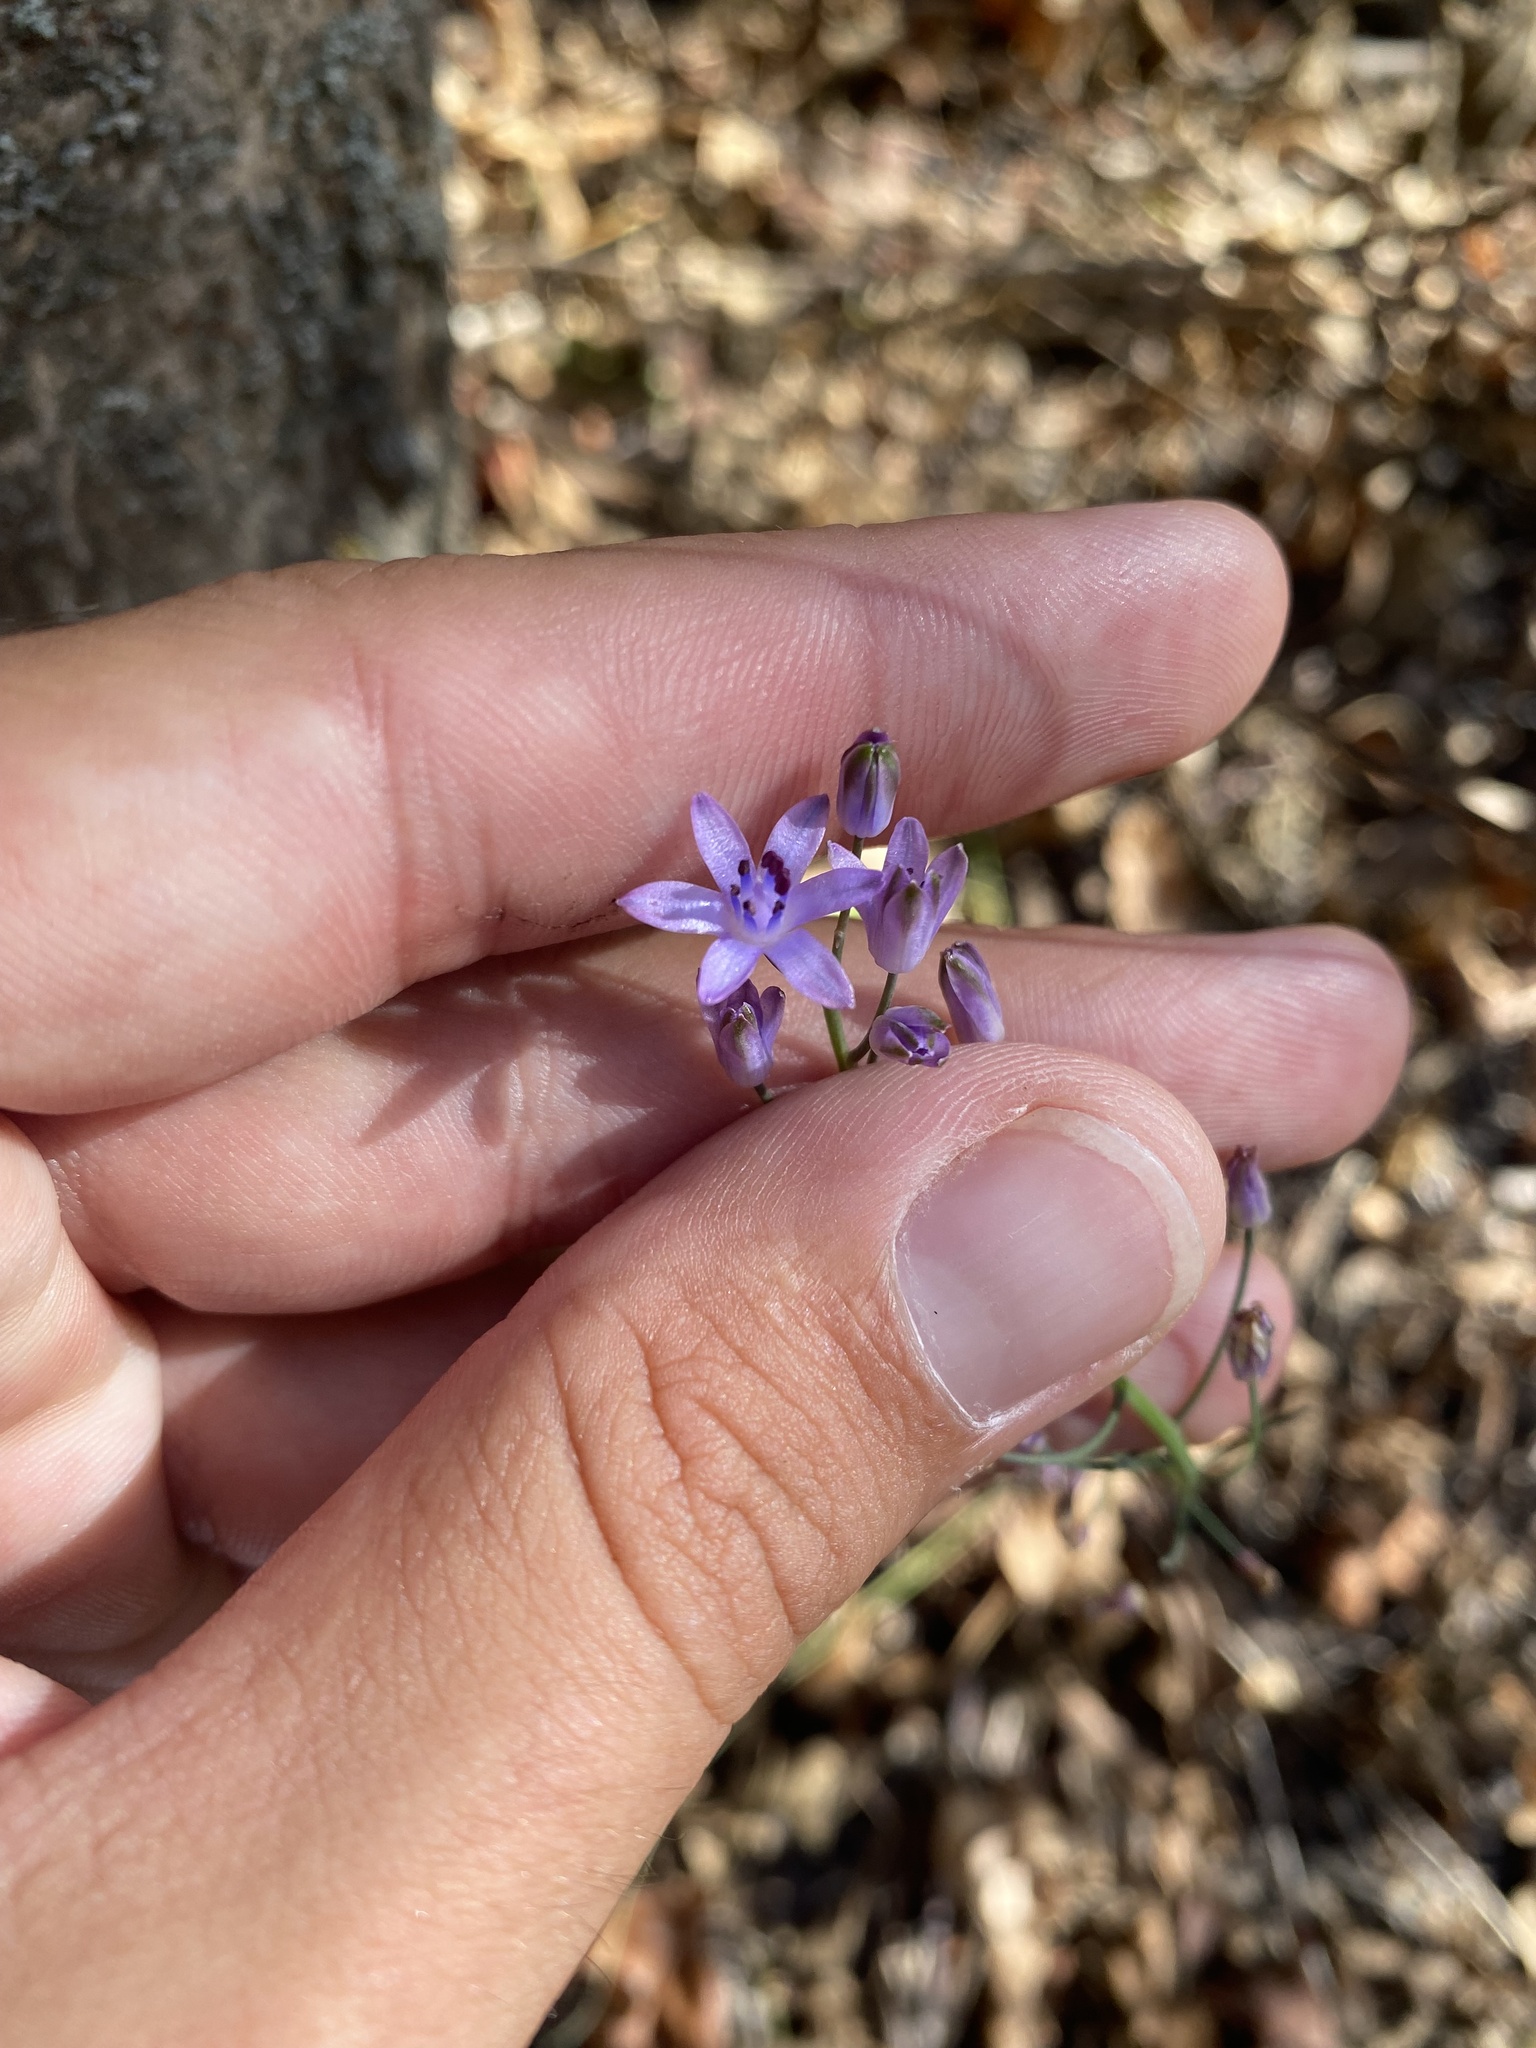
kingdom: Plantae
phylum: Tracheophyta
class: Liliopsida
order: Asparagales
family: Asparagaceae
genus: Prospero
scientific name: Prospero autumnale
